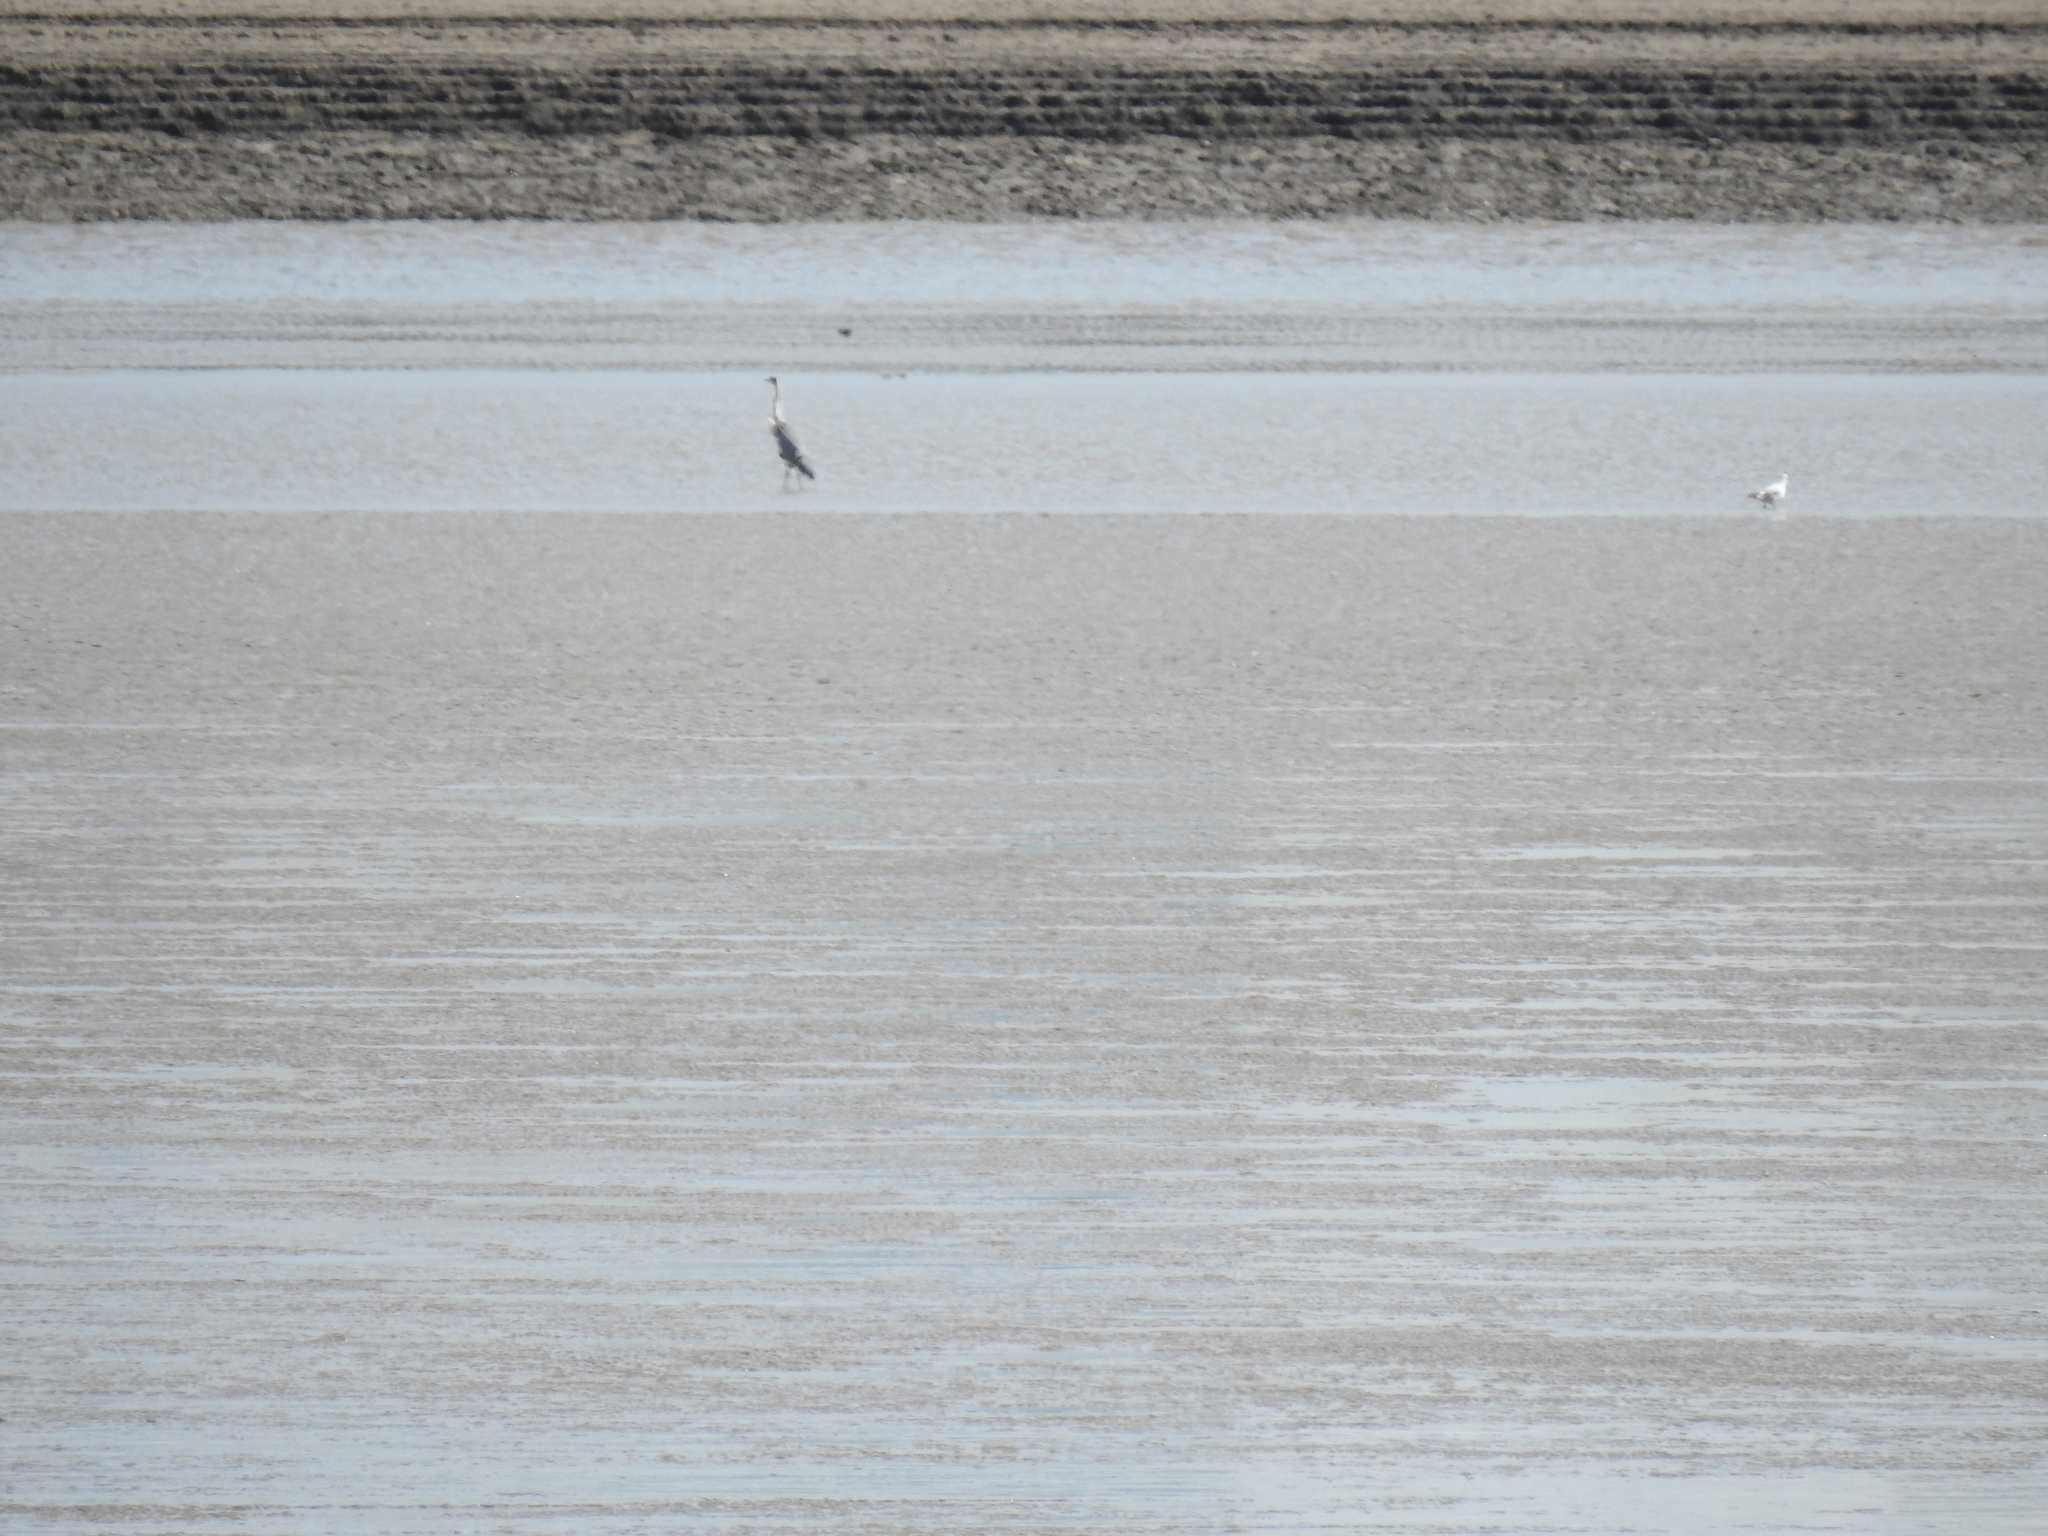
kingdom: Animalia
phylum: Chordata
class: Aves
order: Pelecaniformes
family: Ardeidae
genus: Ardea
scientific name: Ardea cinerea
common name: Grey heron
